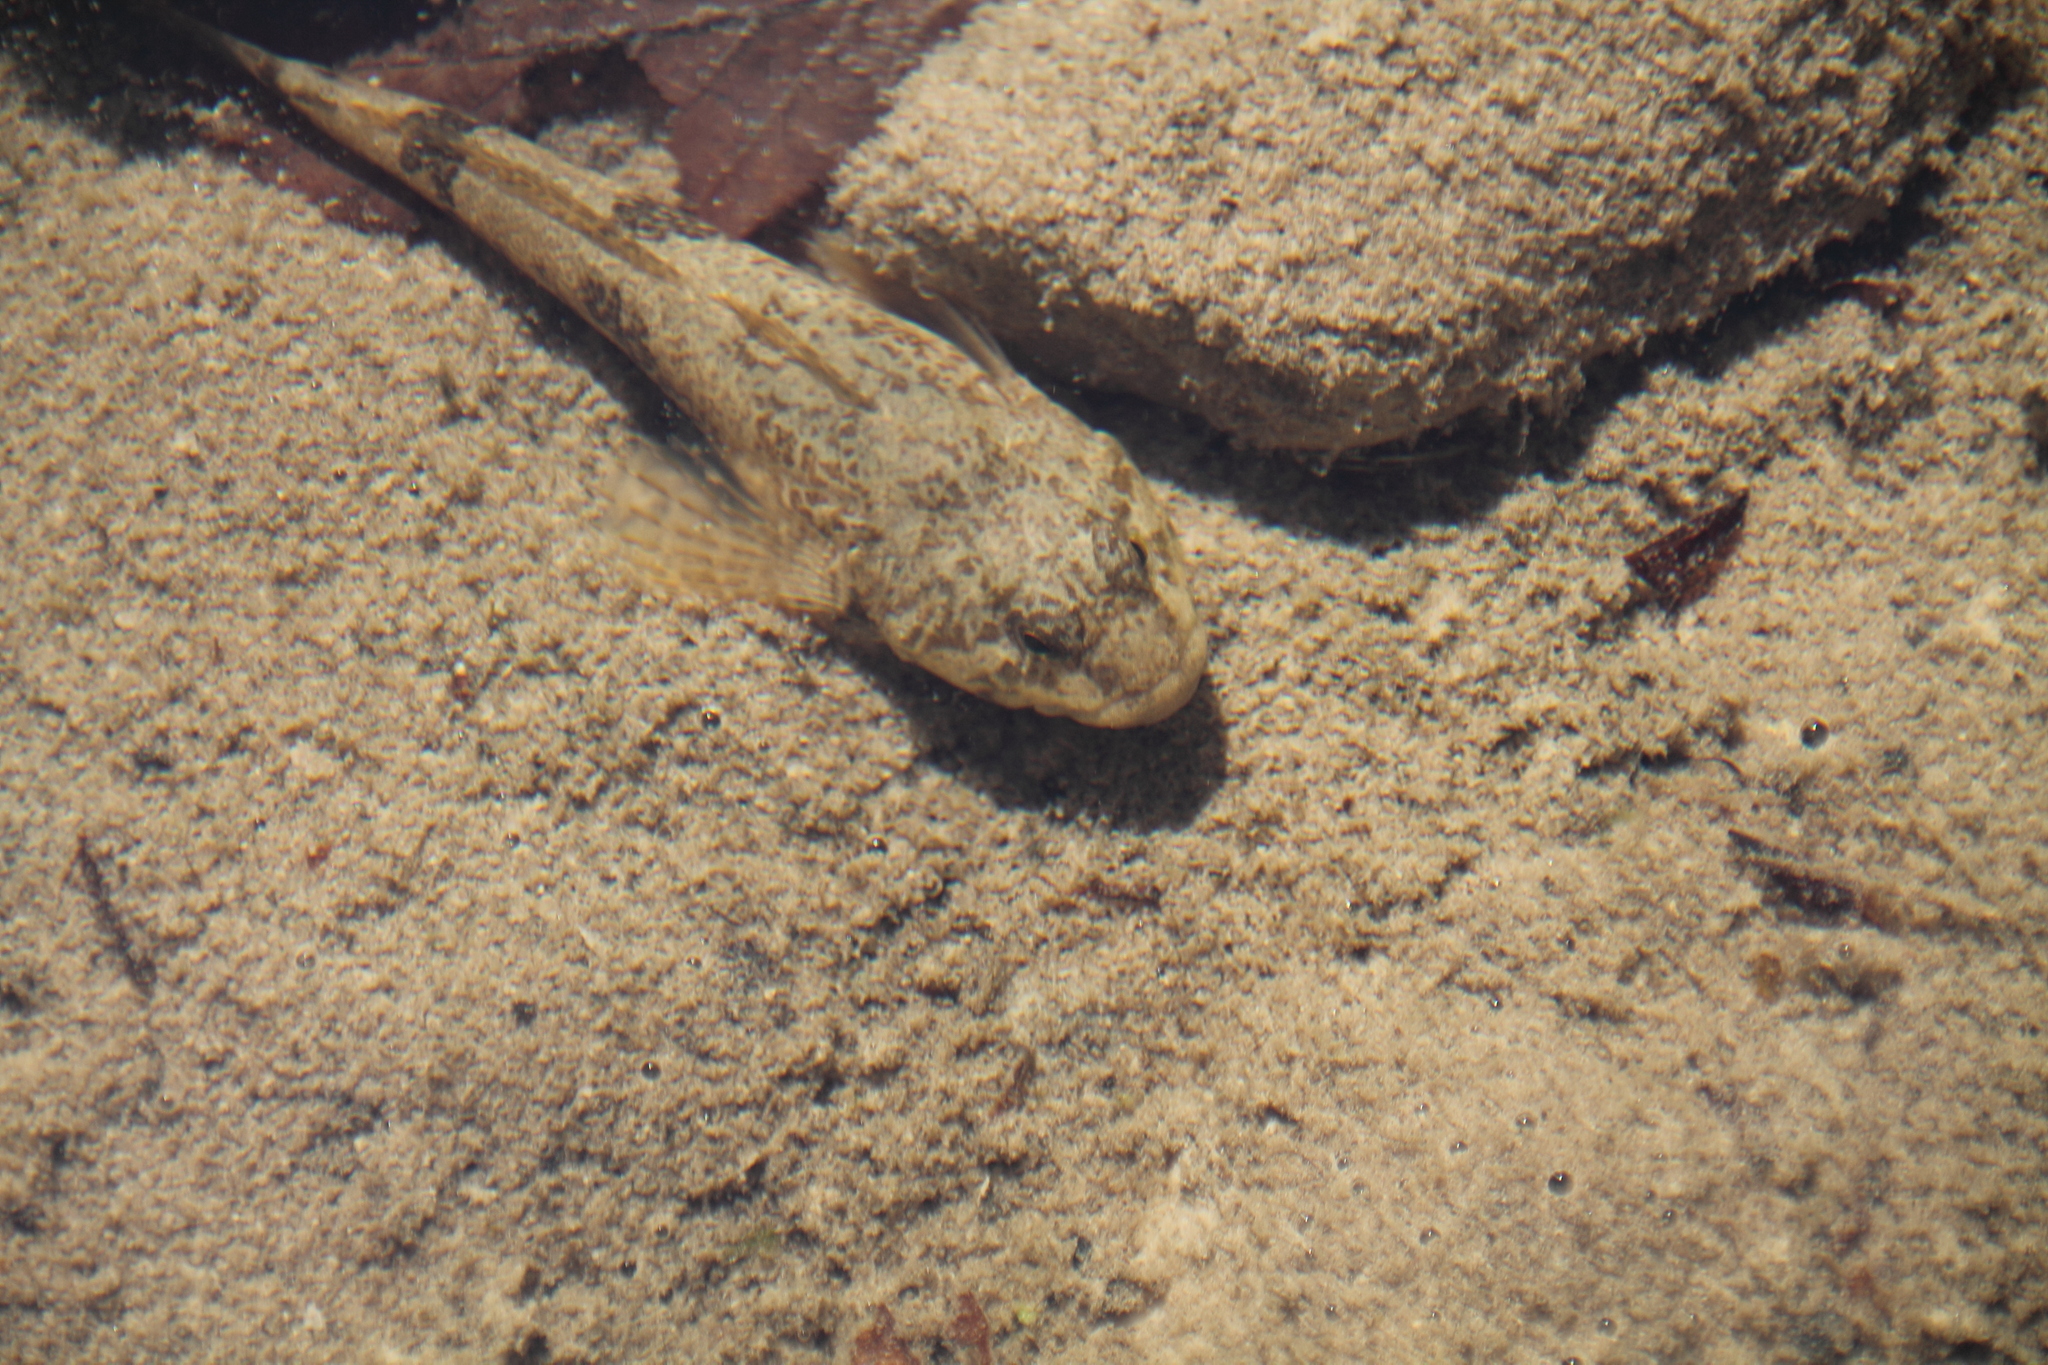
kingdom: Animalia
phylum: Chordata
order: Scorpaeniformes
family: Cottidae
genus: Cottus
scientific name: Cottus gobio
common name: Bullhead
